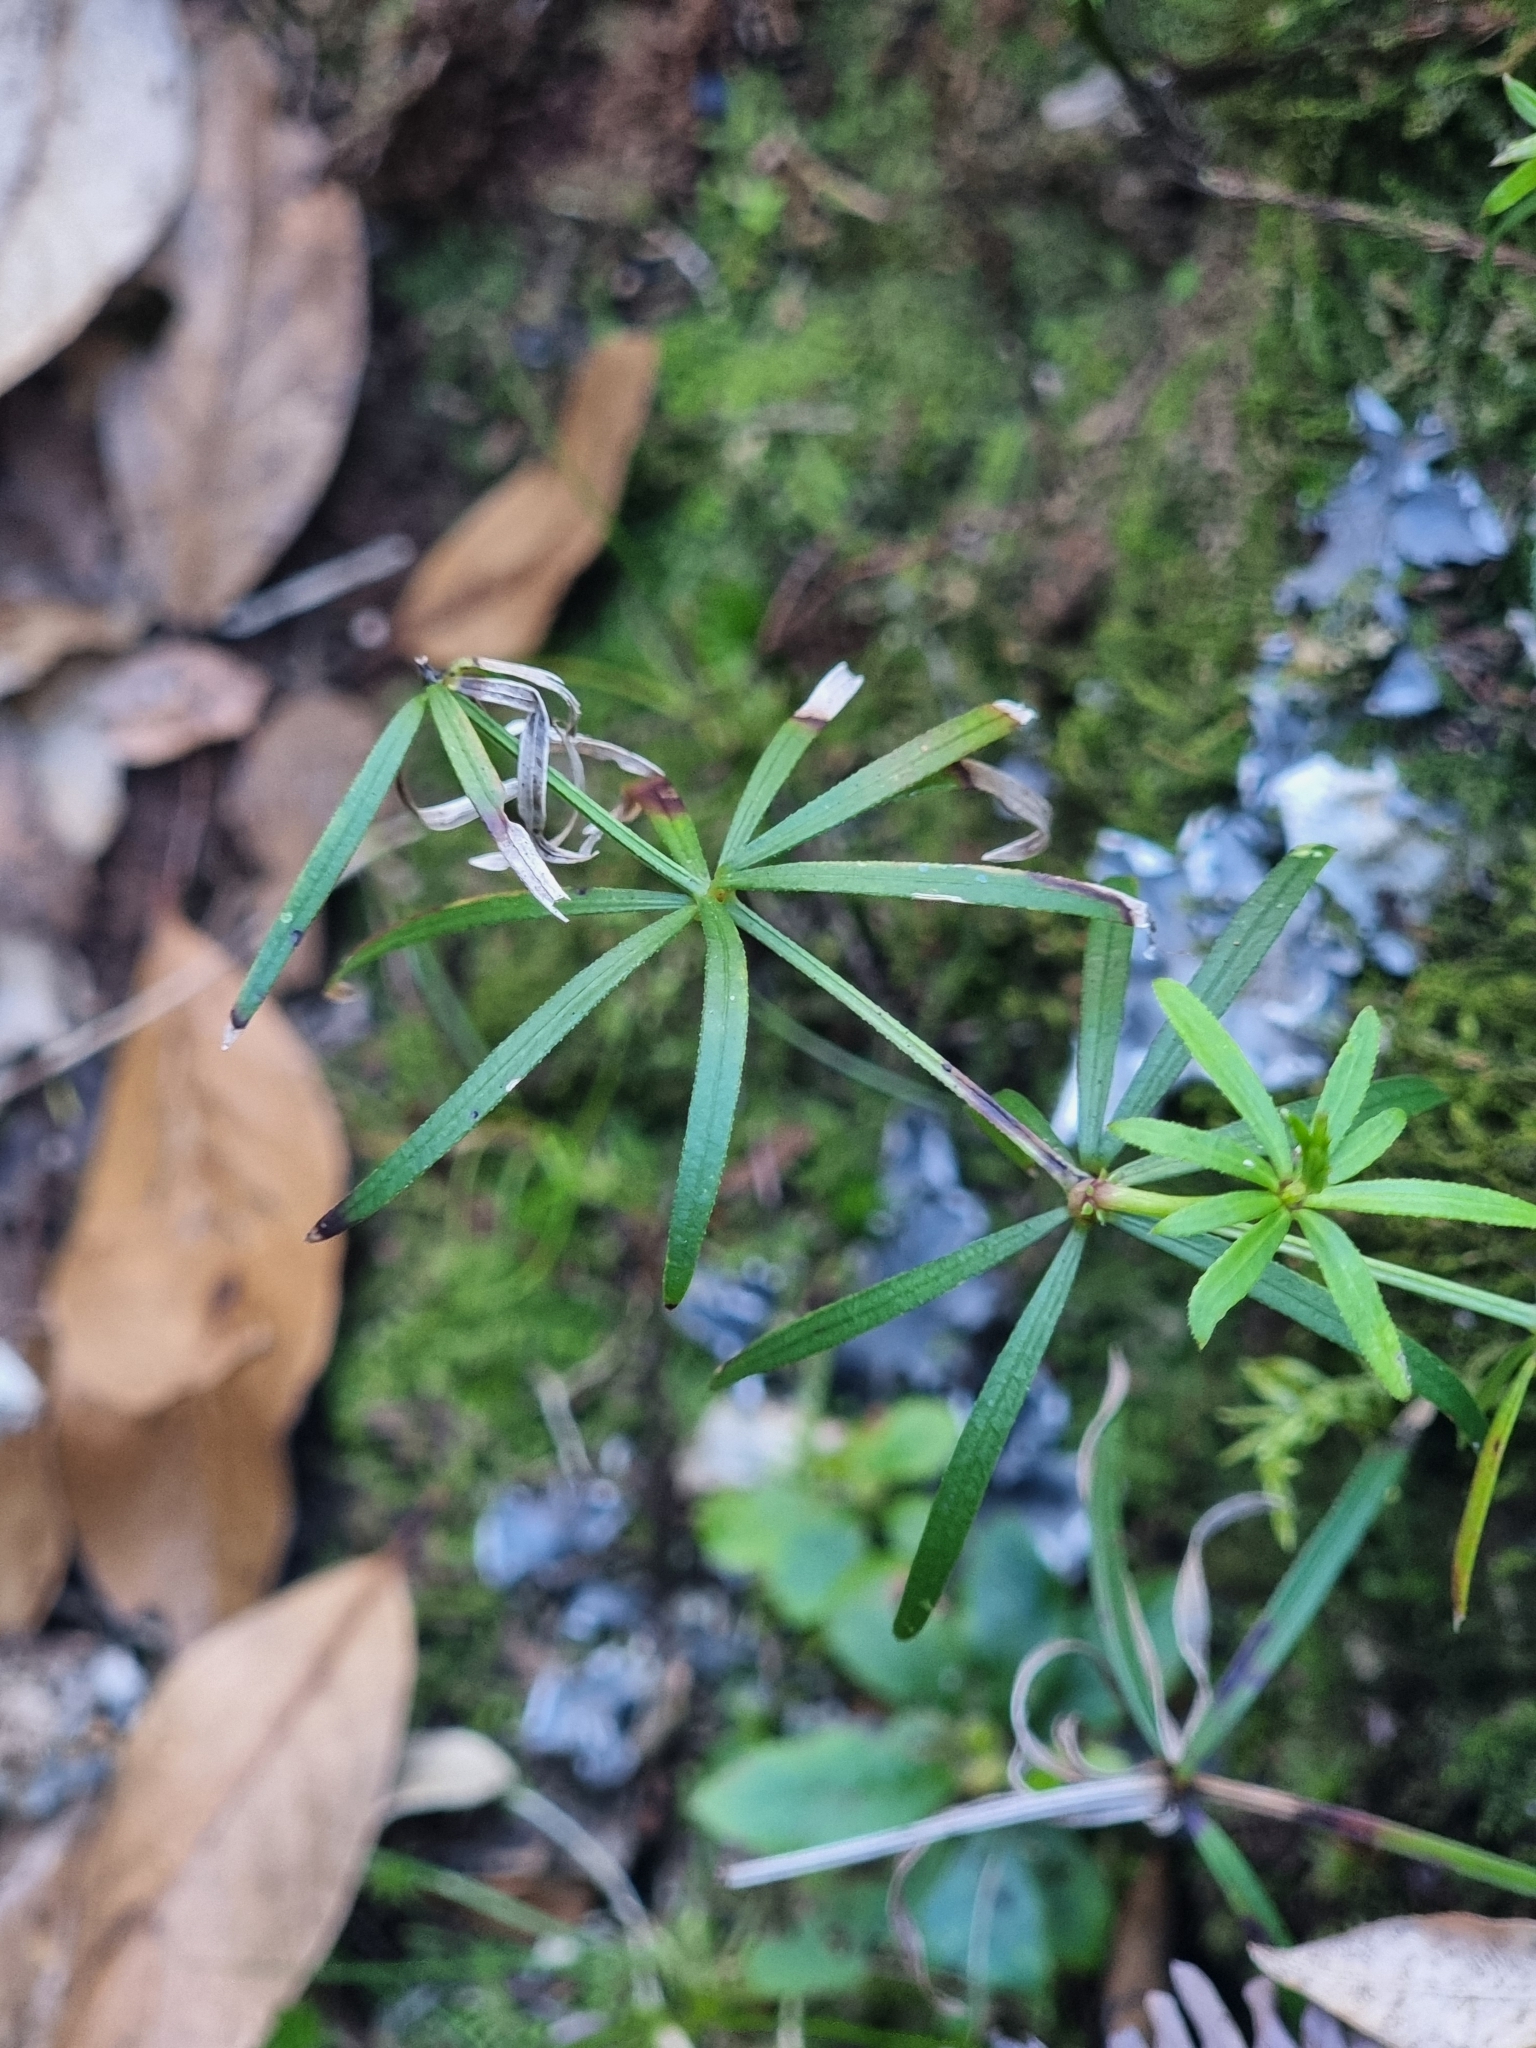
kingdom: Plantae
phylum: Tracheophyta
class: Magnoliopsida
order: Gentianales
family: Rubiaceae
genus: Rubia
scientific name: Rubia occidens
